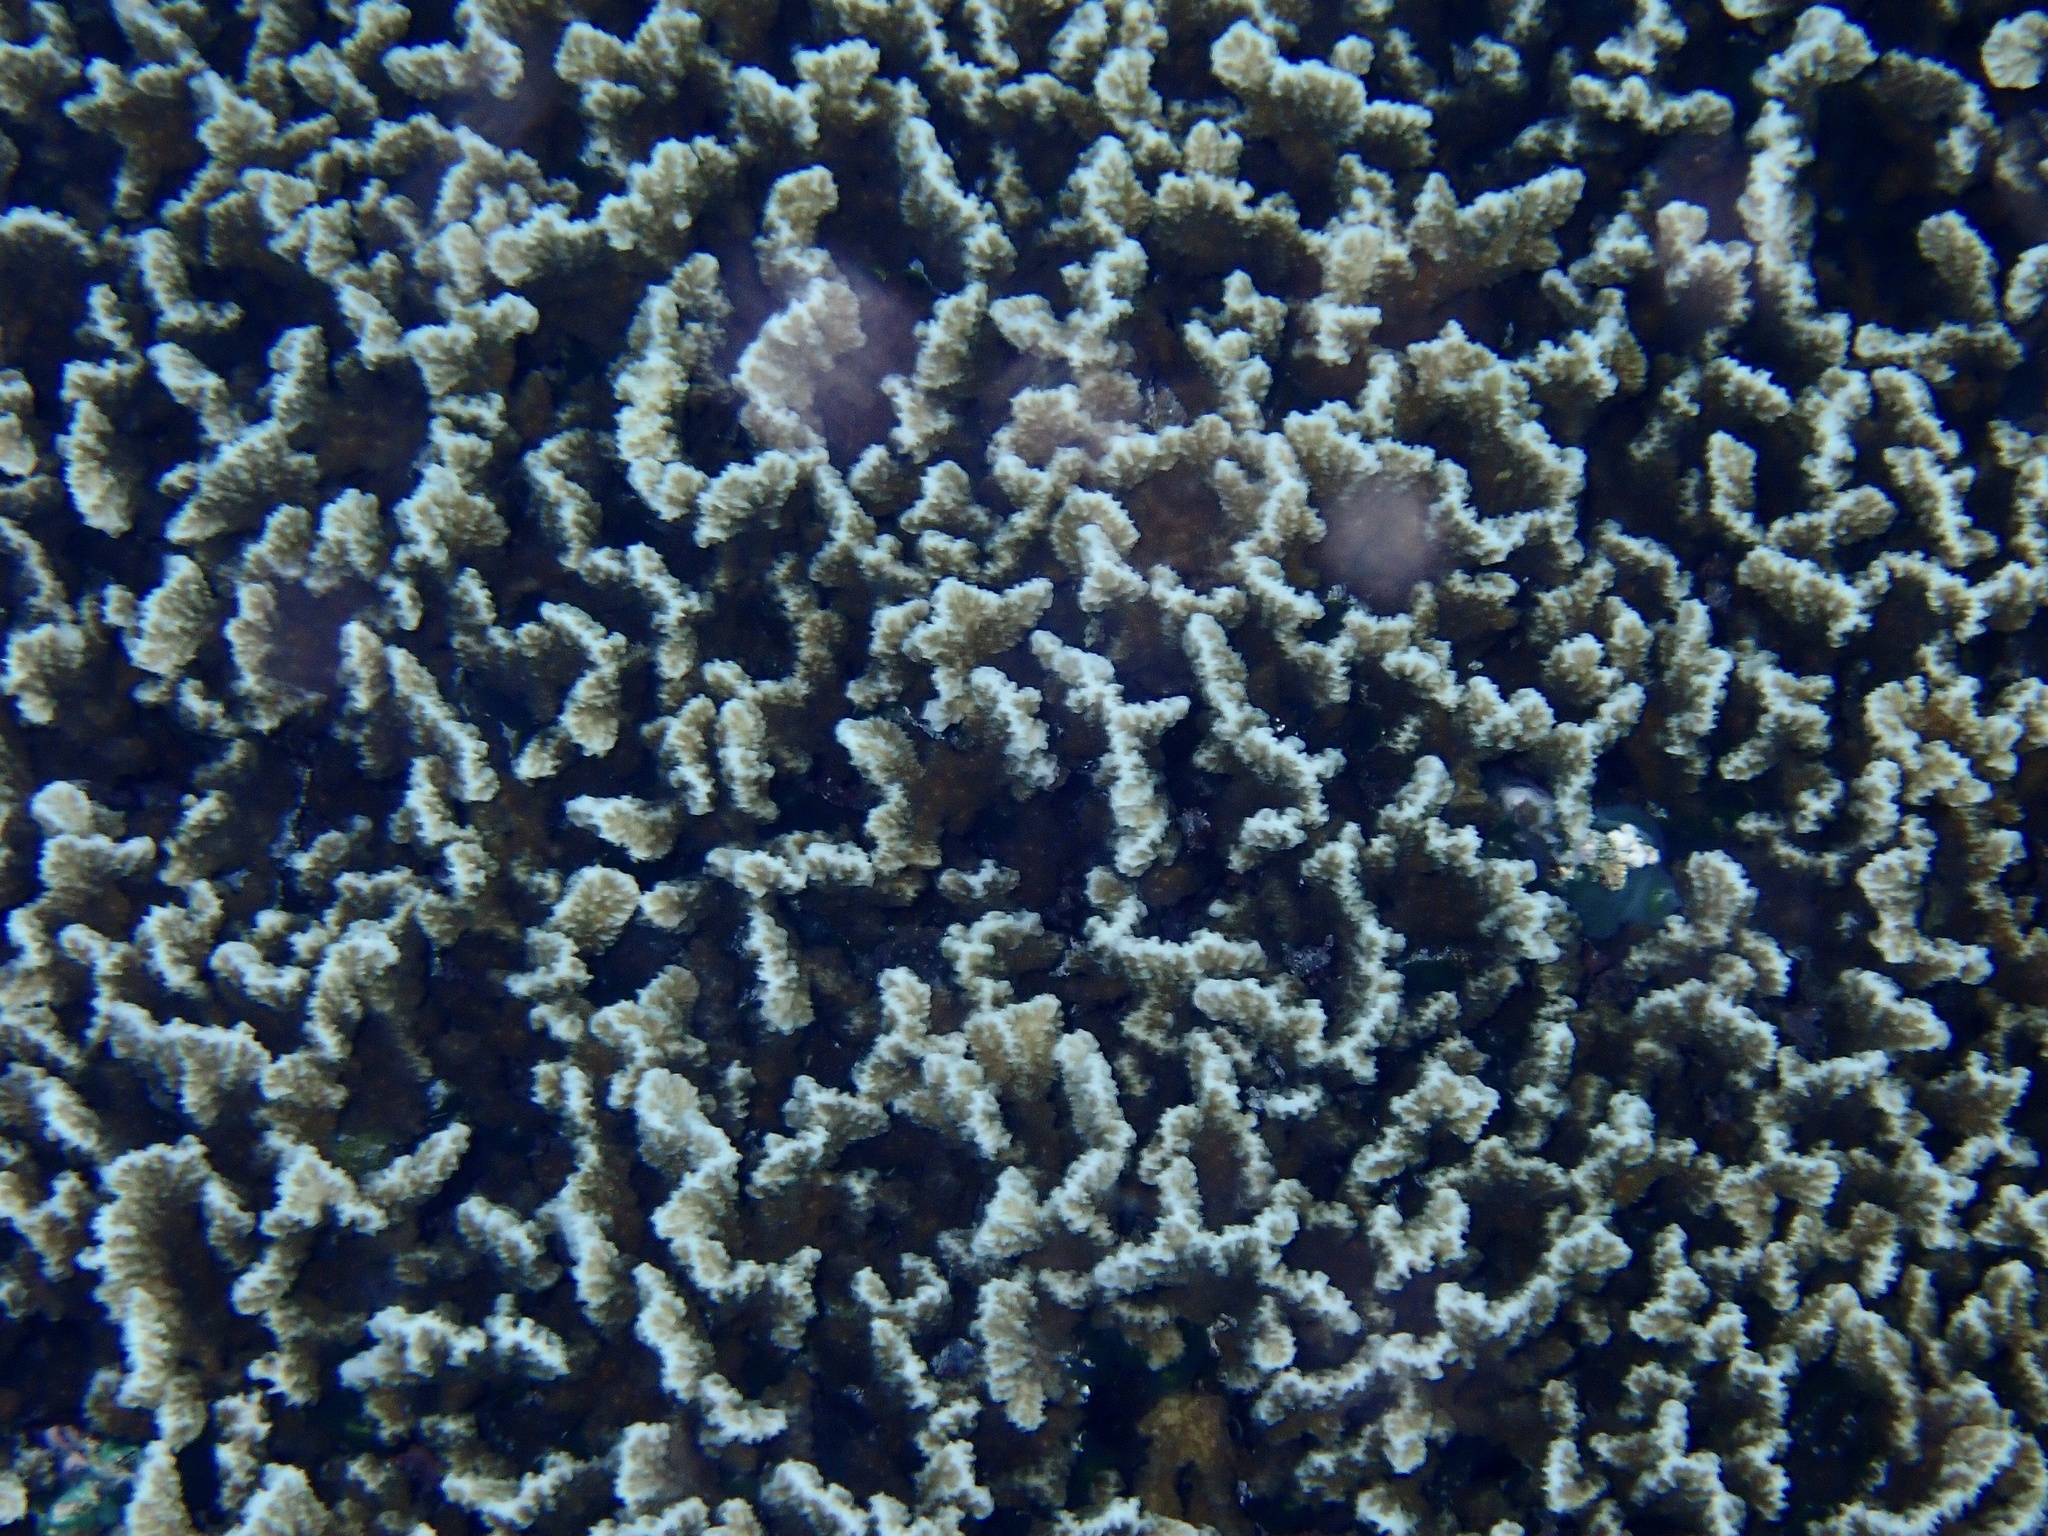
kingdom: Animalia
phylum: Cnidaria
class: Anthozoa
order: Scleractinia
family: Merulinidae
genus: Merulina
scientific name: Merulina scabricula
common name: Crispy crust coral
